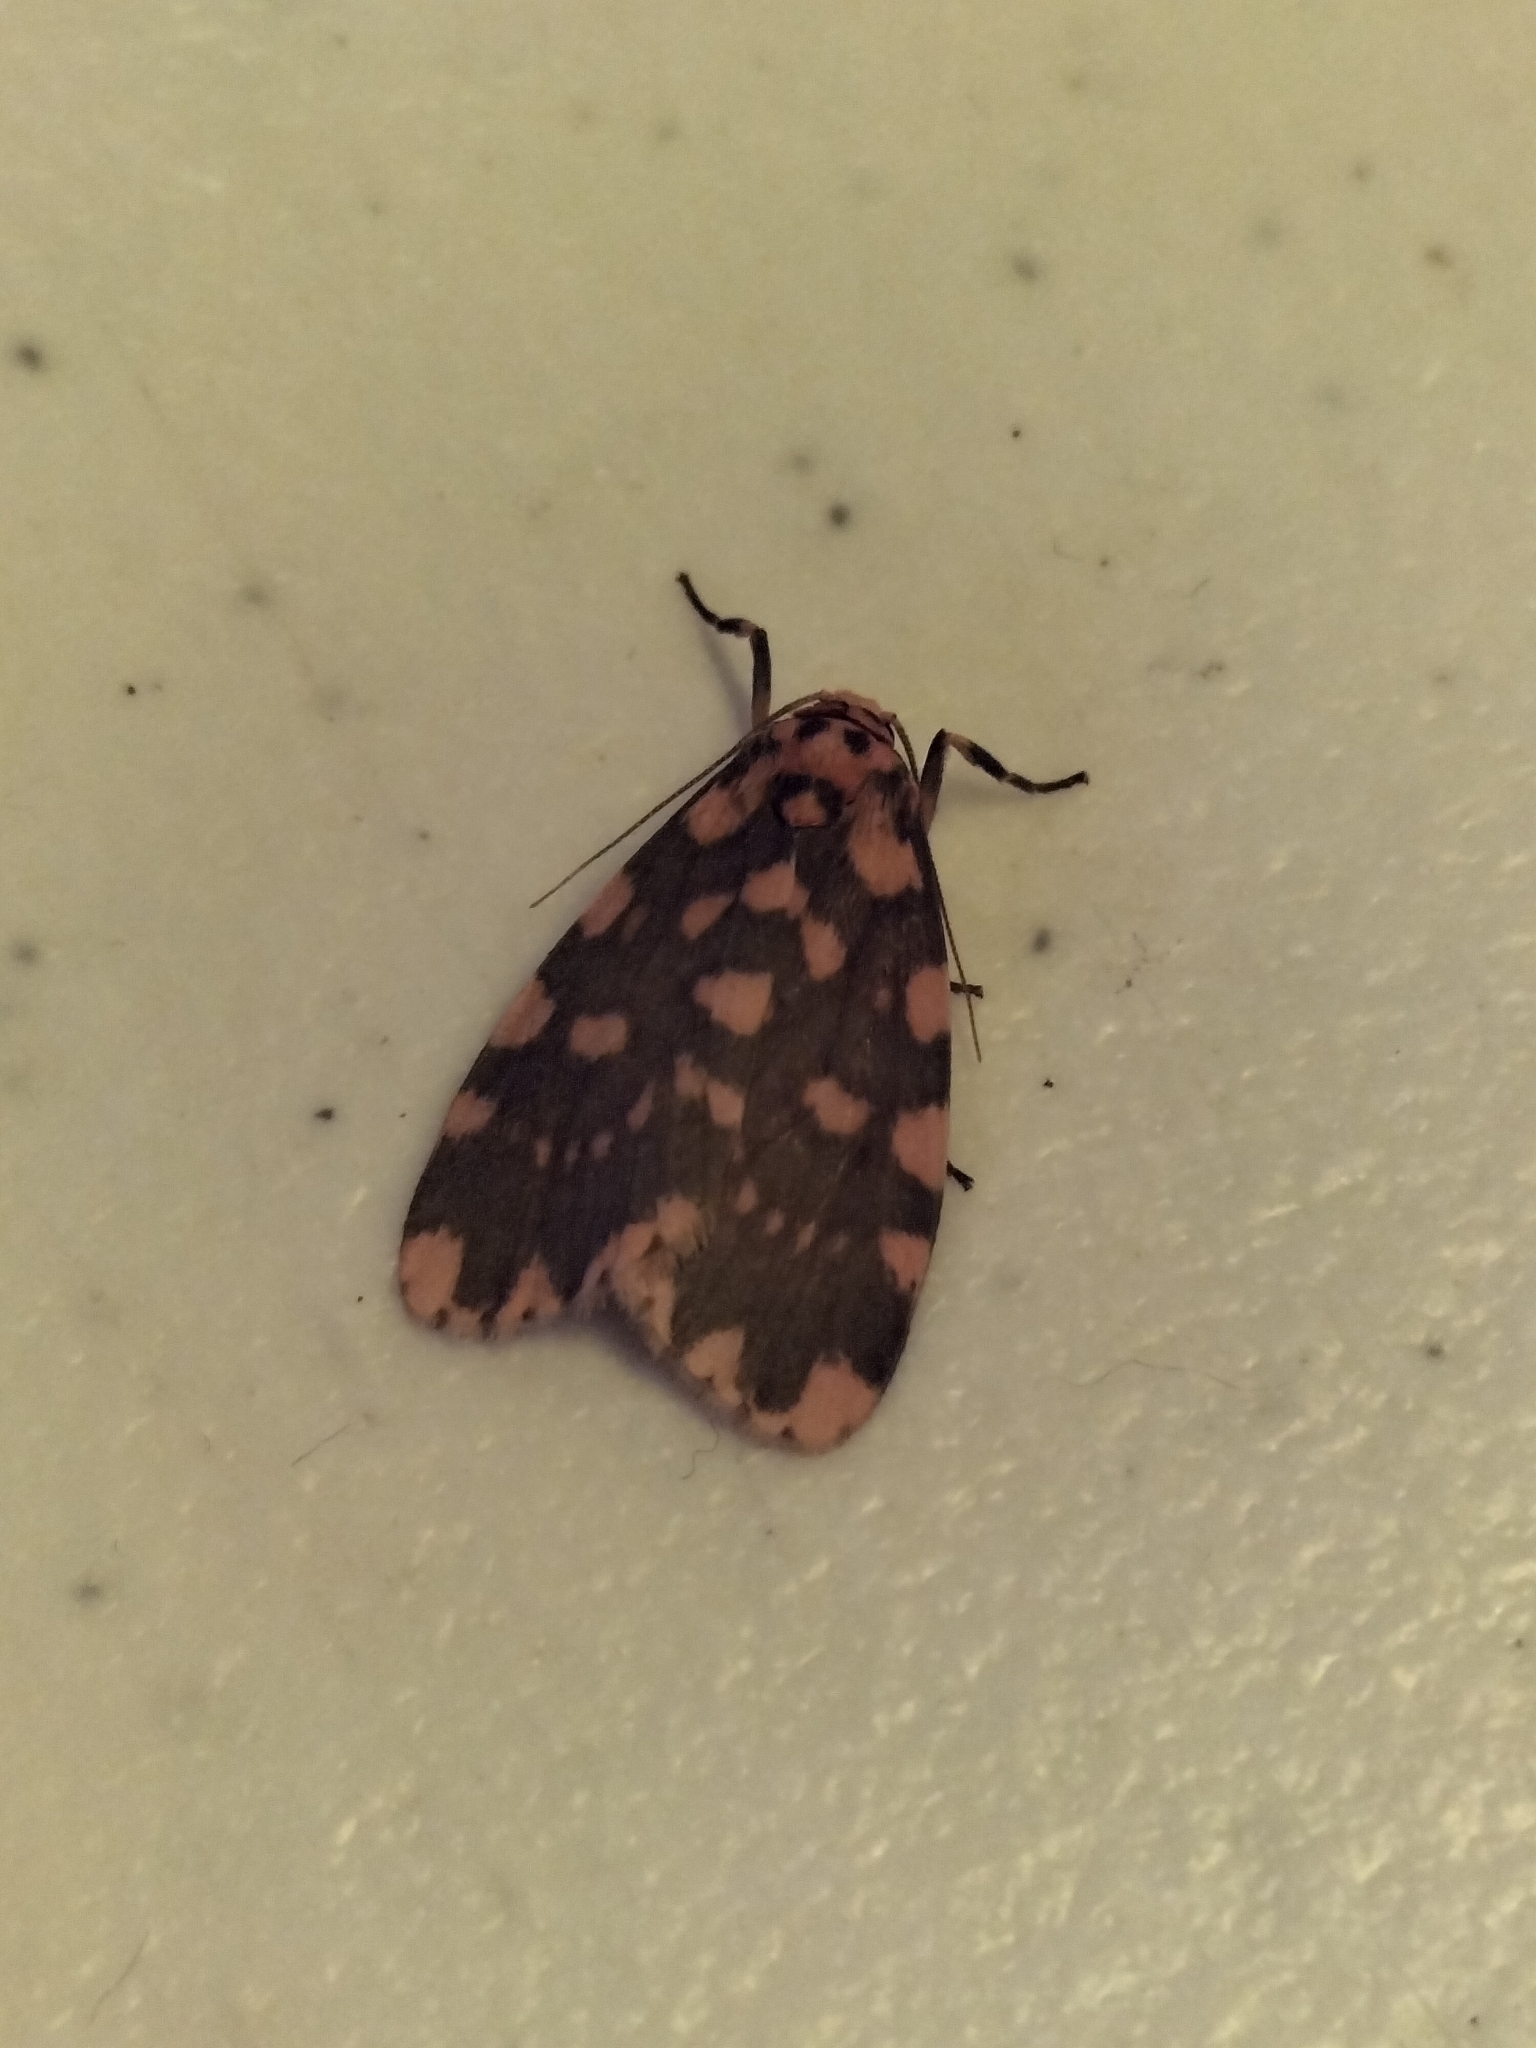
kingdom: Animalia
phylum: Arthropoda
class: Insecta
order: Lepidoptera
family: Erebidae
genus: Cyme
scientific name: Cyme quadrilineata
